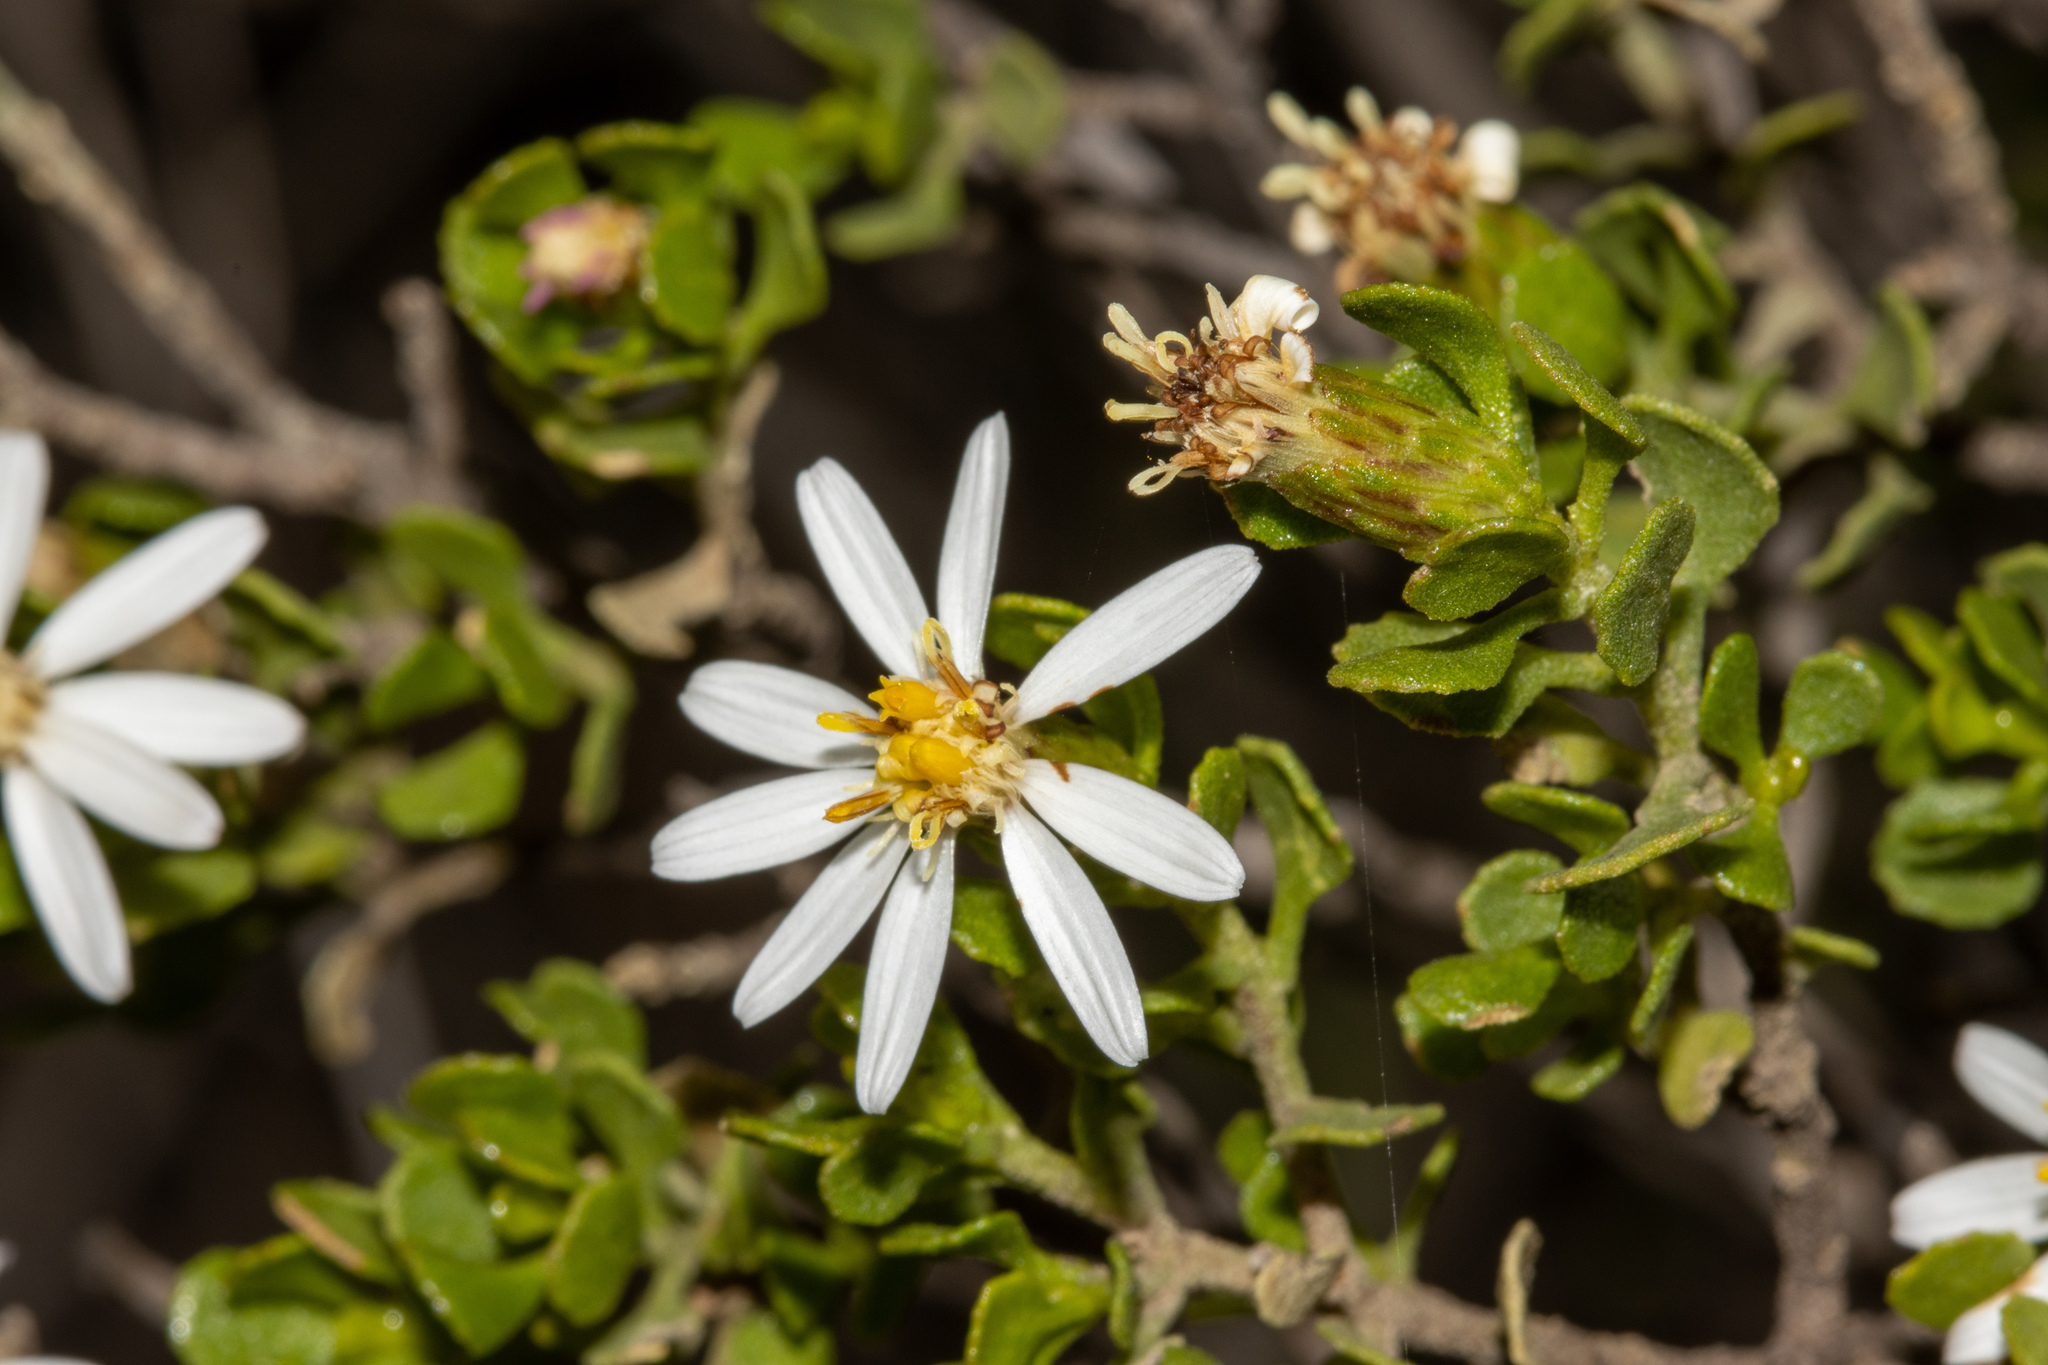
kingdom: Plantae
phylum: Tracheophyta
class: Magnoliopsida
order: Asterales
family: Asteraceae
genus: Walsholaria
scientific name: Walsholaria muelleri
